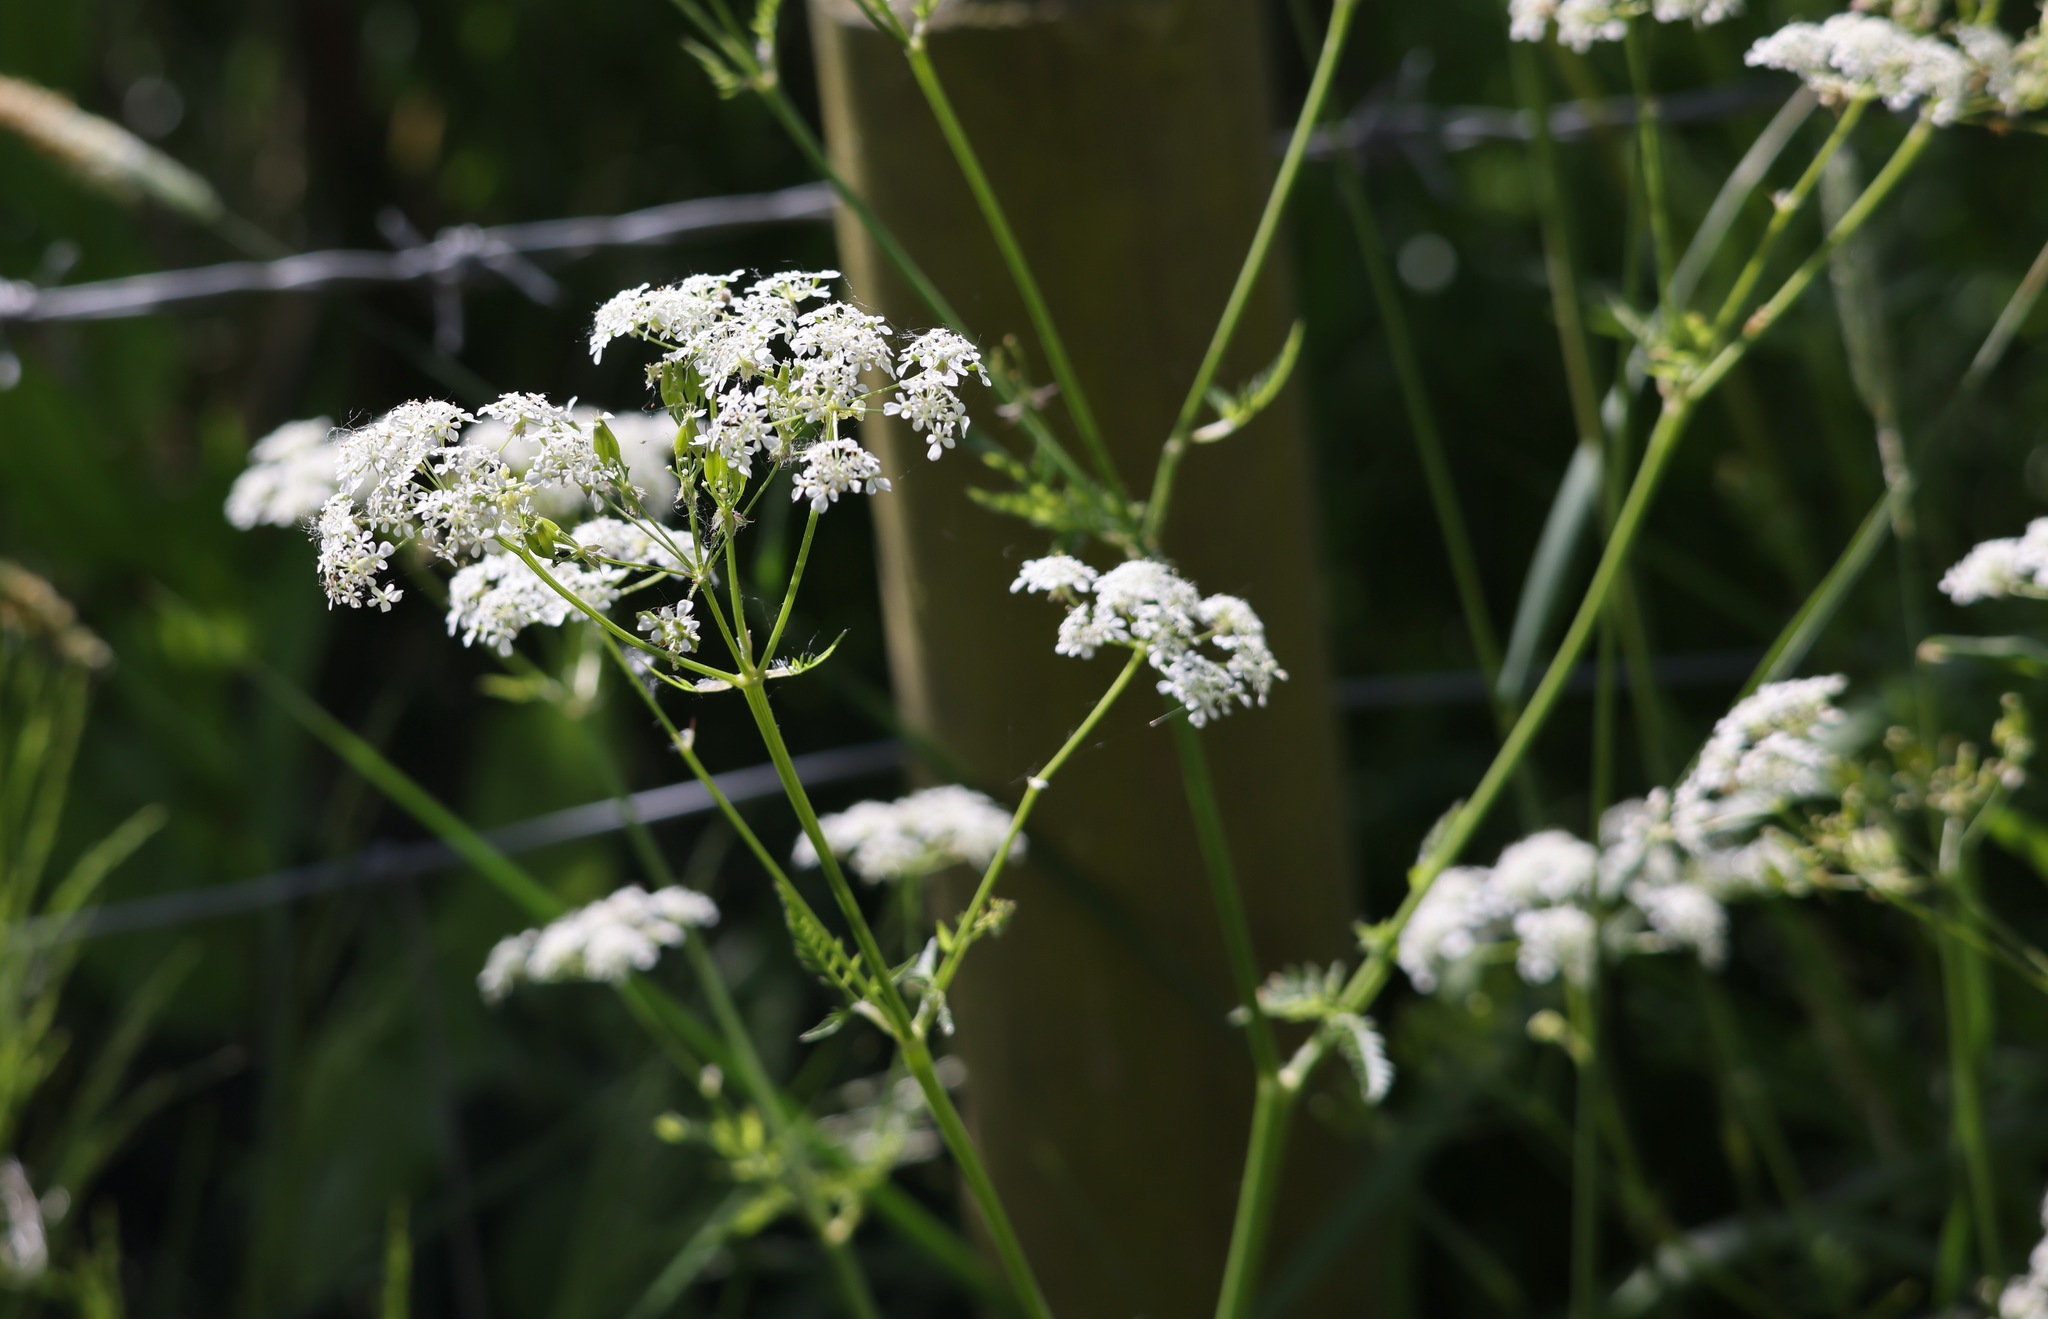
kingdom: Plantae
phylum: Tracheophyta
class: Magnoliopsida
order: Apiales
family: Apiaceae
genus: Anthriscus
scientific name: Anthriscus sylvestris
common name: Cow parsley
